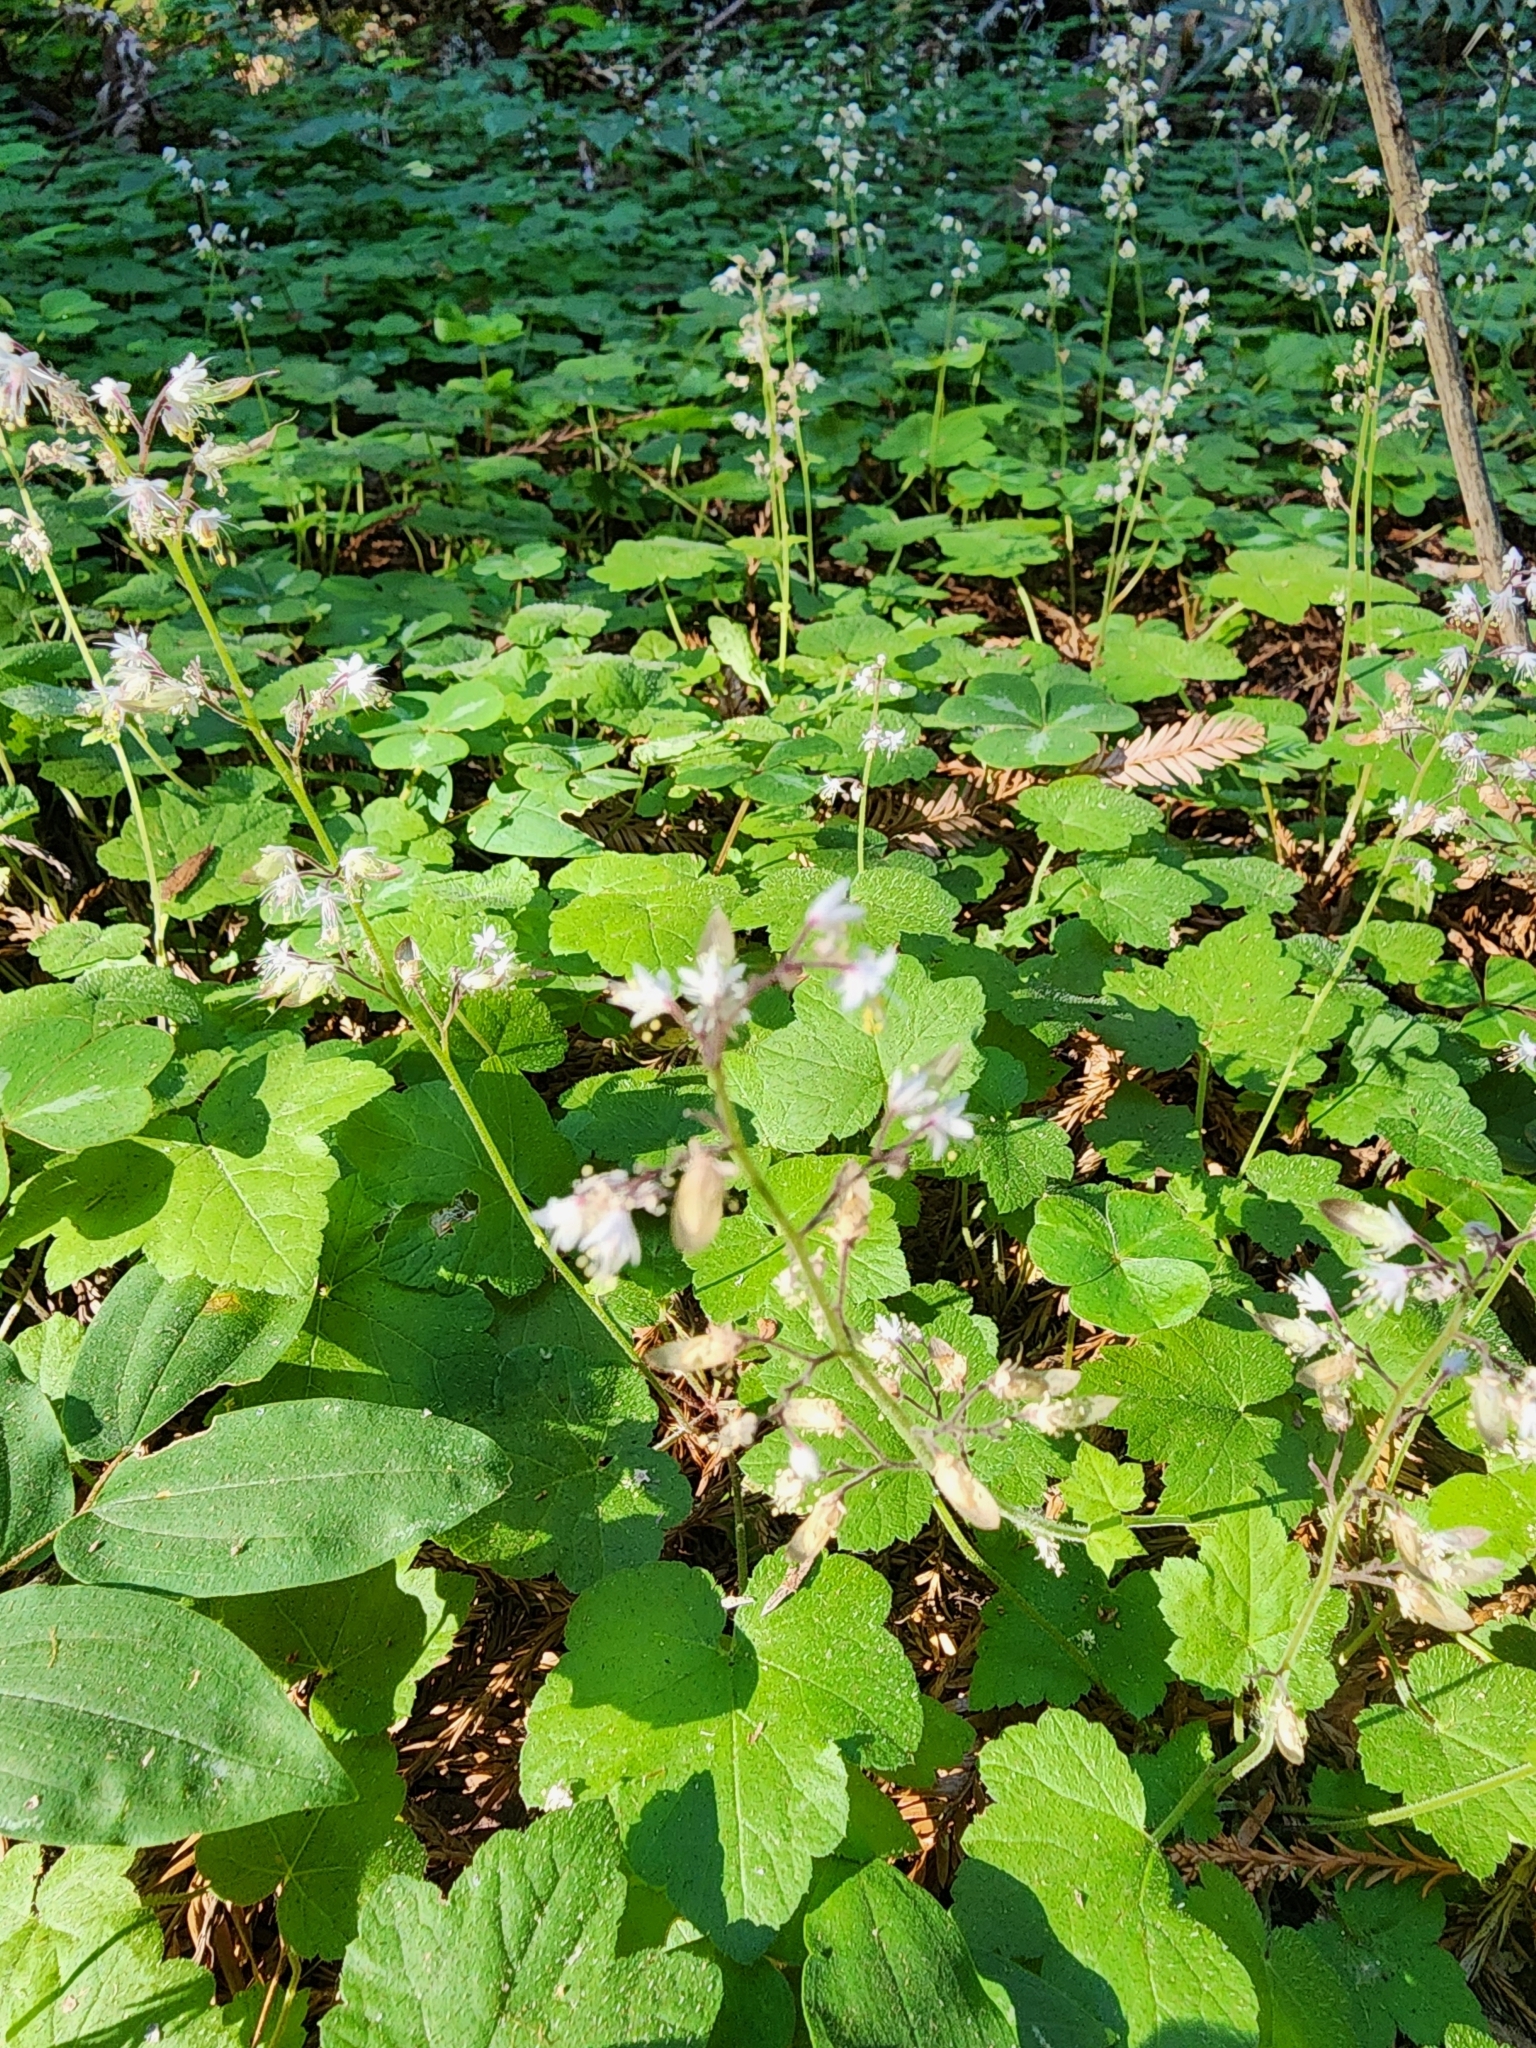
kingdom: Plantae
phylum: Tracheophyta
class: Magnoliopsida
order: Saxifragales
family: Saxifragaceae
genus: Tiarella
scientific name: Tiarella trifoliata
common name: Sugar-scoop
